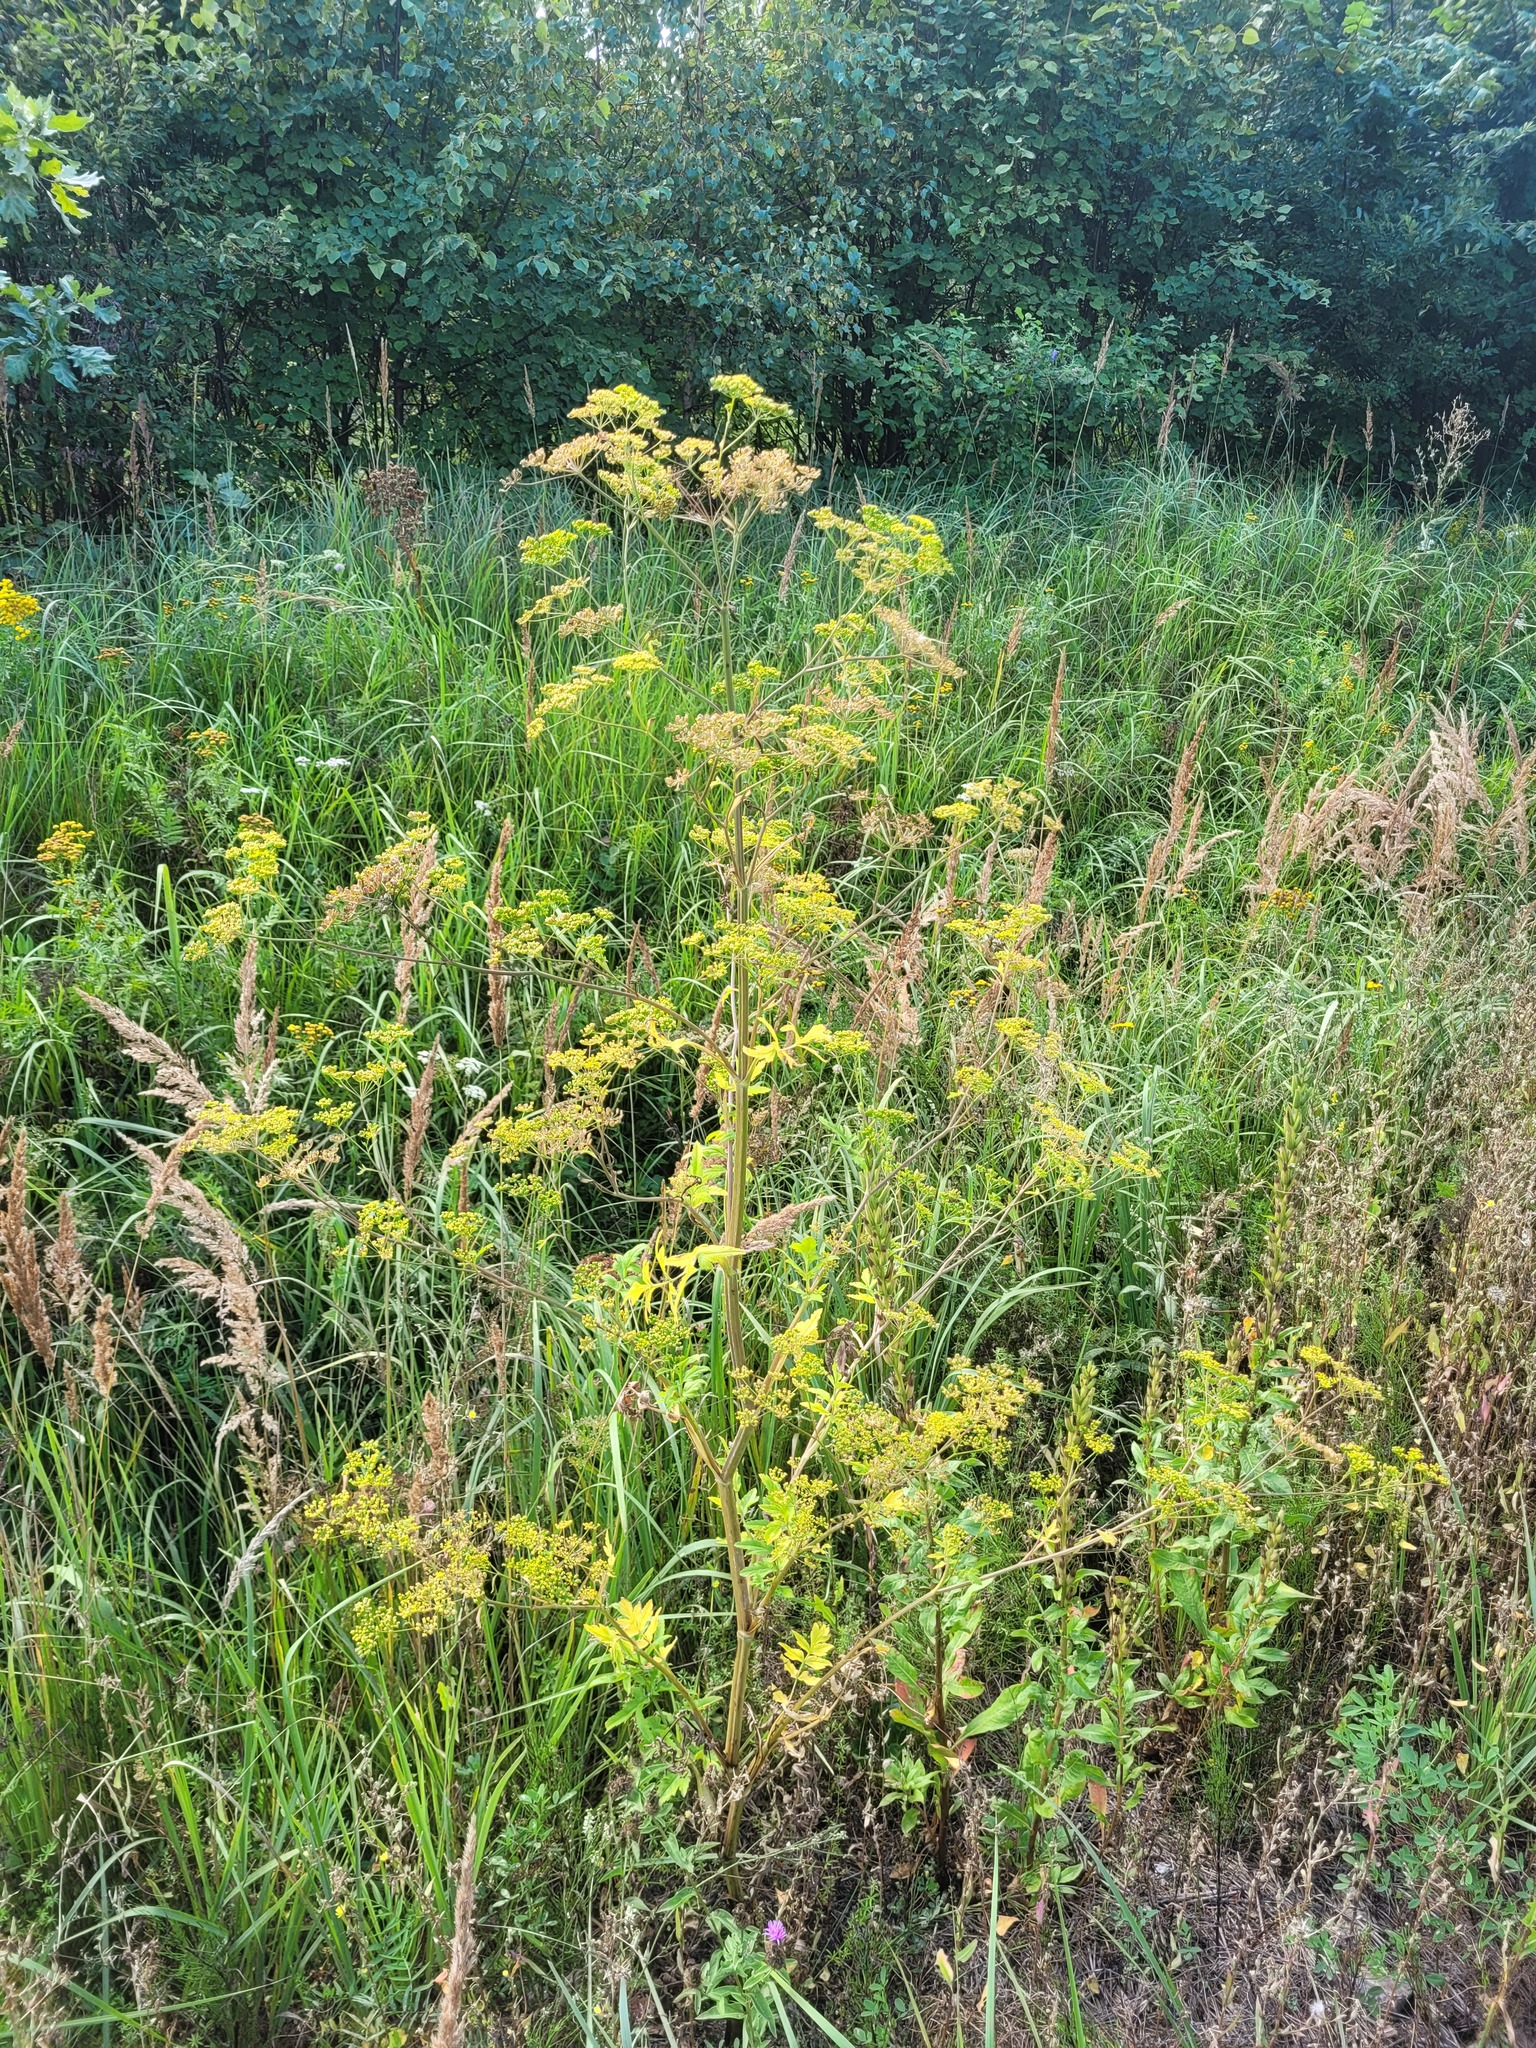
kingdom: Plantae
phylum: Tracheophyta
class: Magnoliopsida
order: Apiales
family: Apiaceae
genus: Pastinaca
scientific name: Pastinaca sativa
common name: Wild parsnip
